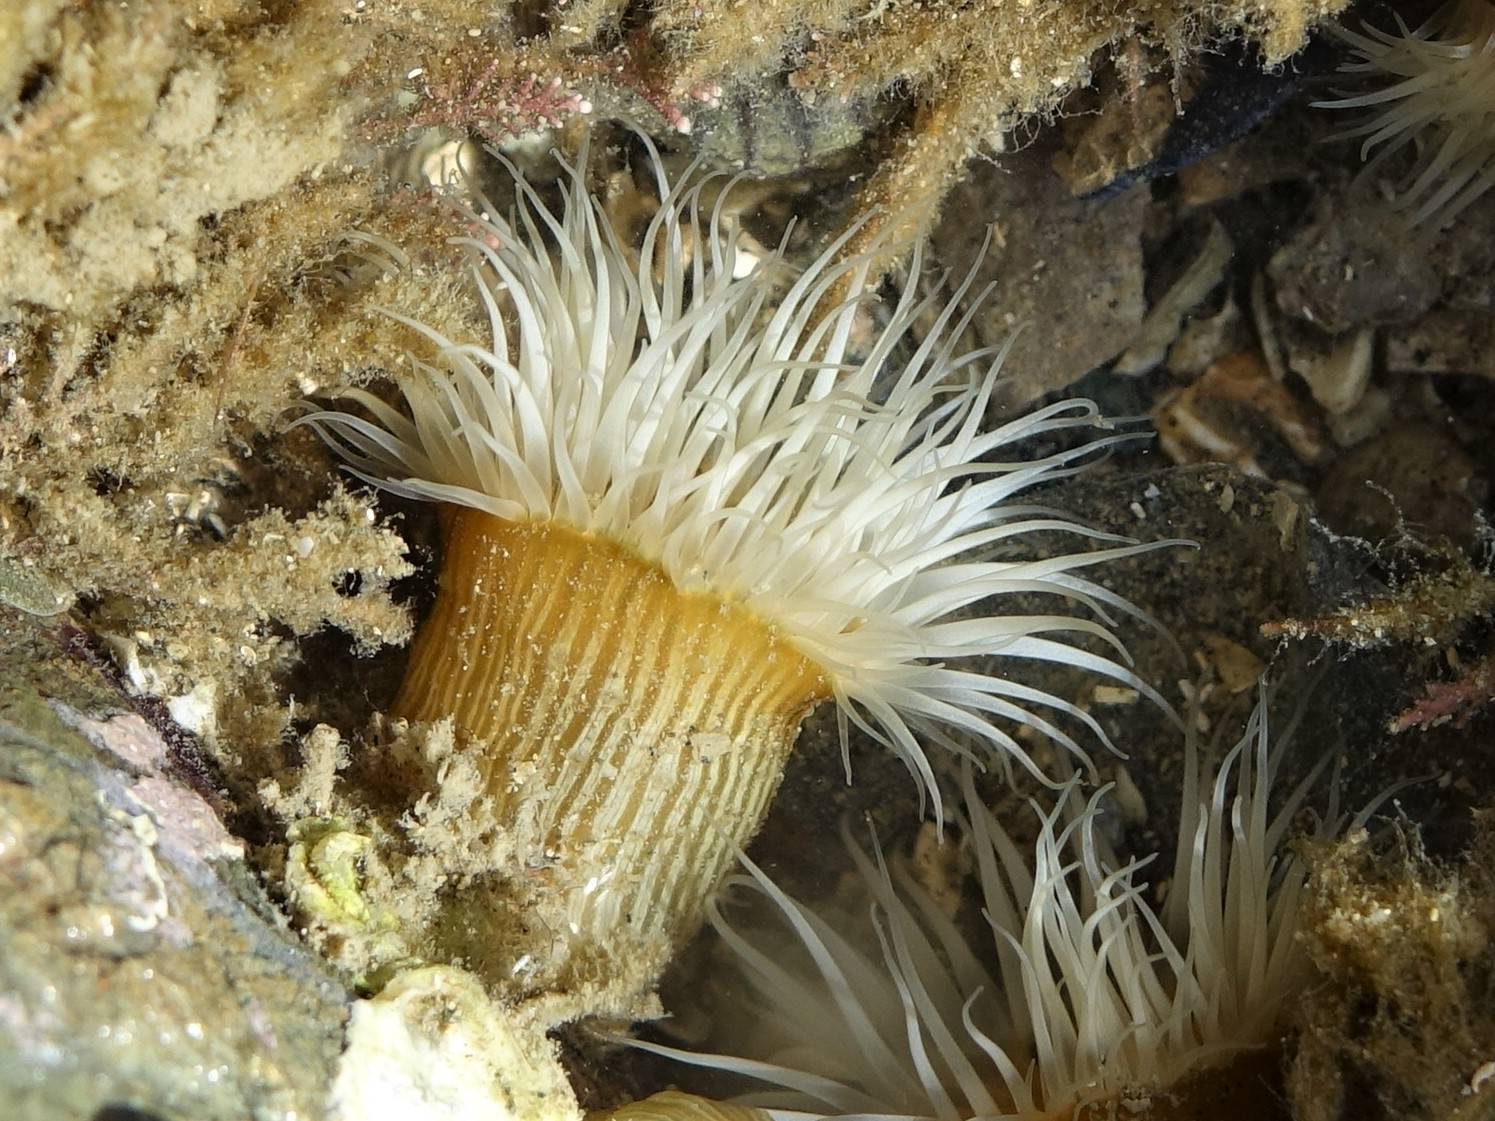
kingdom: Animalia
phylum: Cnidaria
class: Anthozoa
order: Actiniaria
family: Sagartiidae
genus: Anthothoe
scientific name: Anthothoe albocincta
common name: Orange striped anemone
